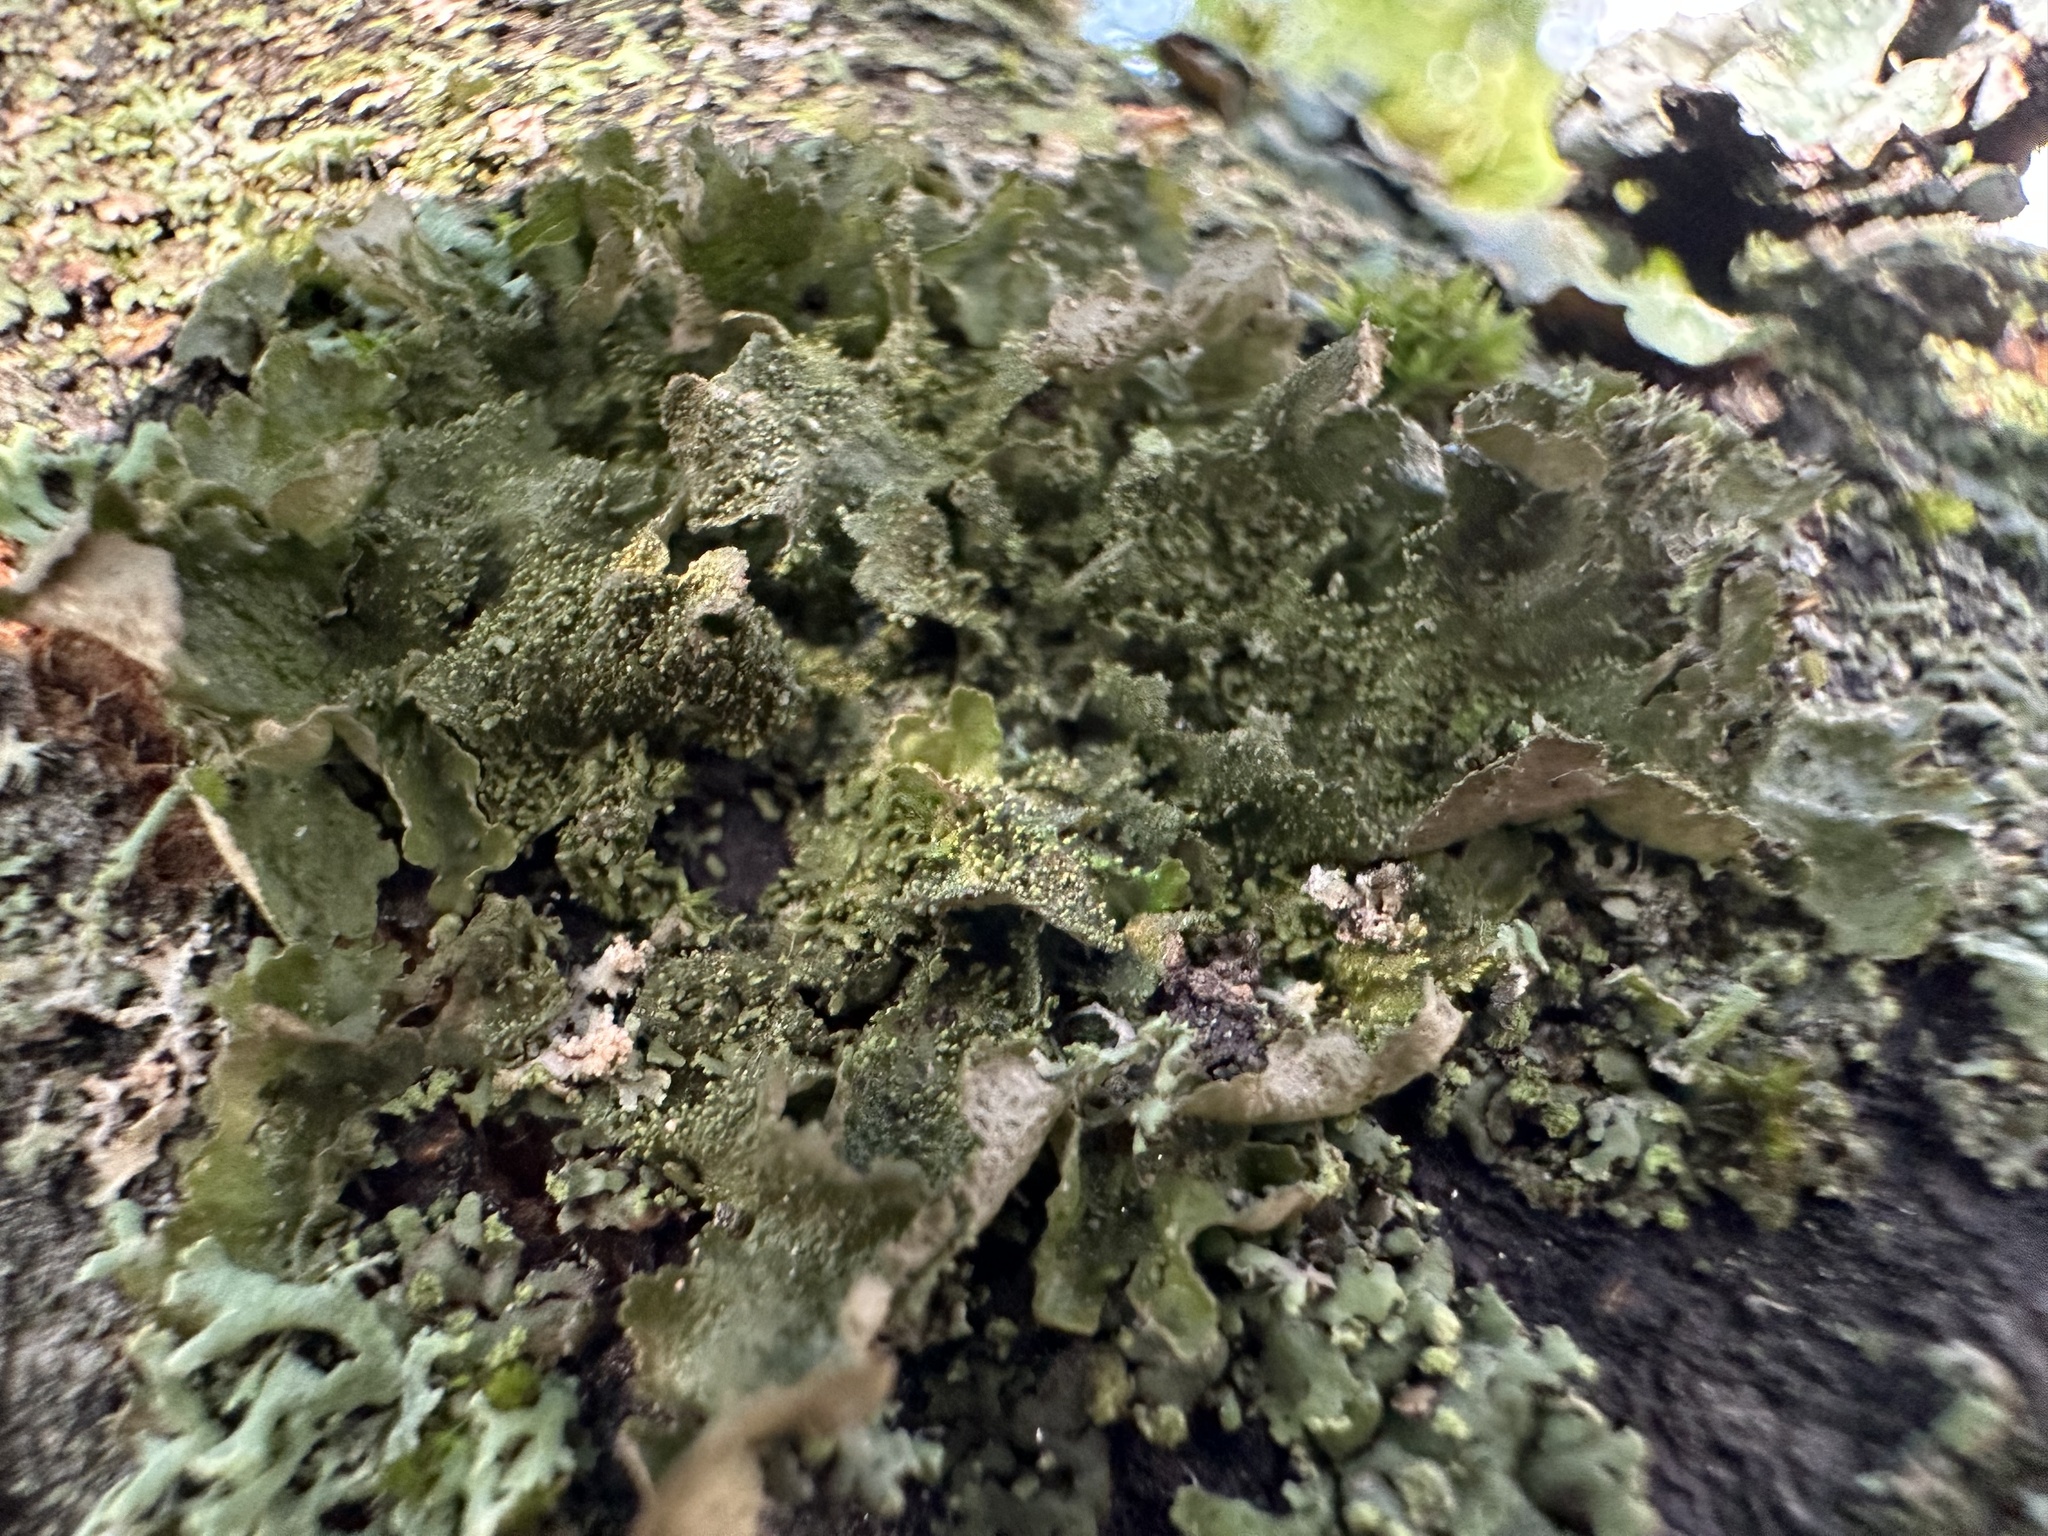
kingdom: Fungi
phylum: Ascomycota
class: Lecanoromycetes
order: Lecanorales
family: Parmeliaceae
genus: Melanohalea
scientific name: Melanohalea exasperatula
